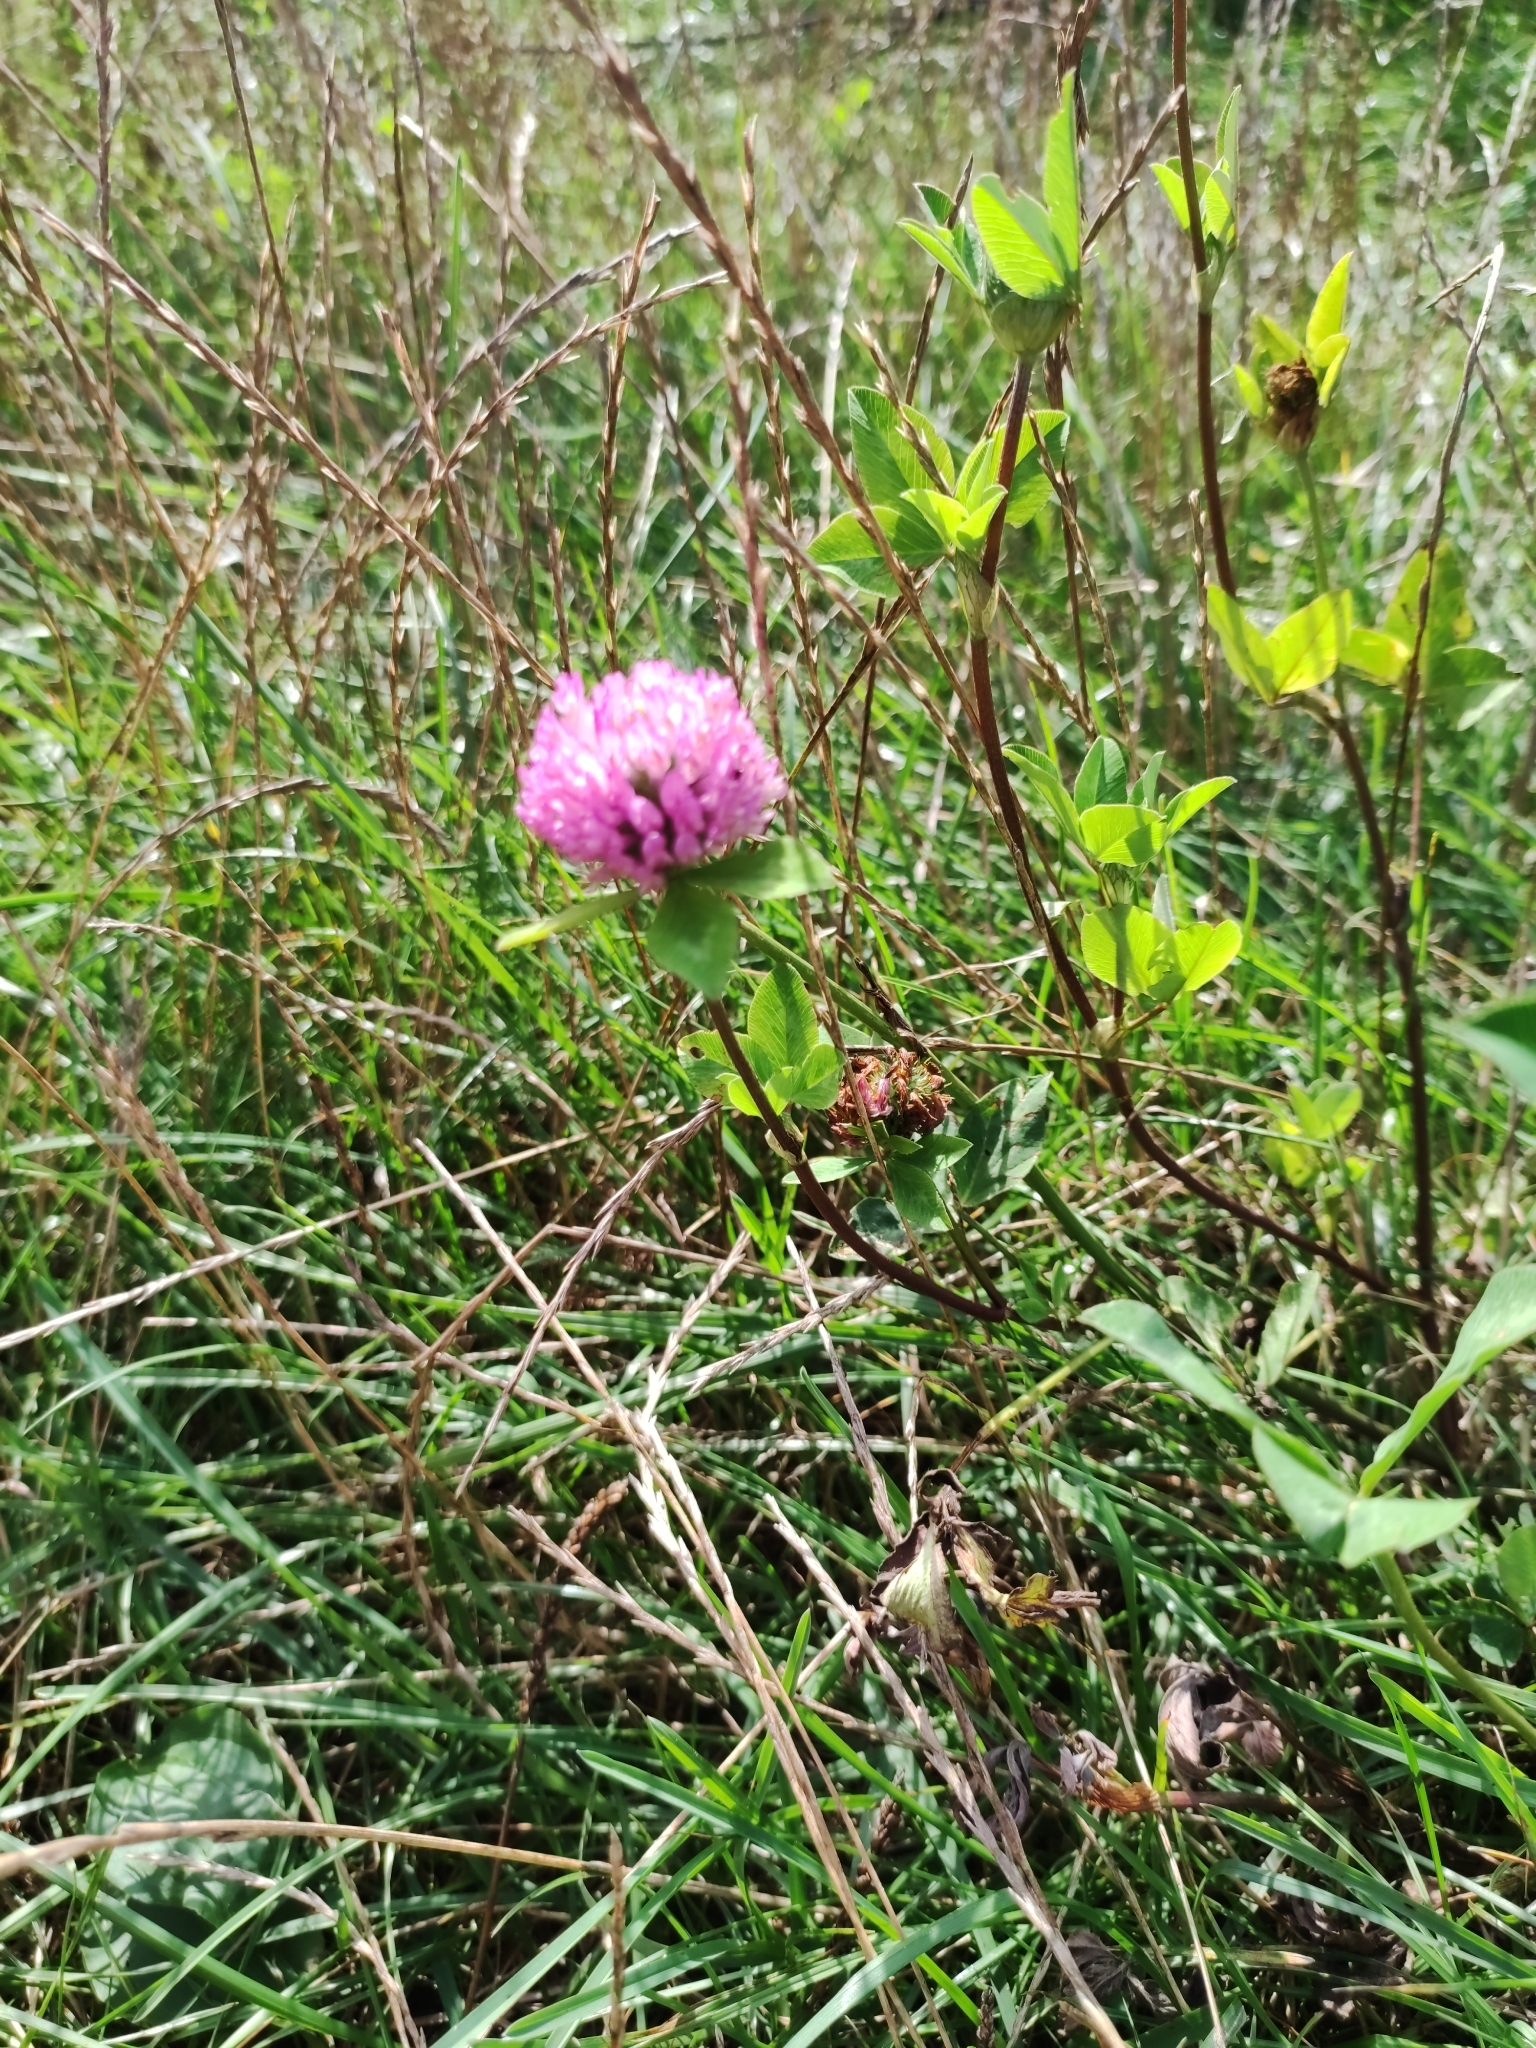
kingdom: Plantae
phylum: Tracheophyta
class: Magnoliopsida
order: Fabales
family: Fabaceae
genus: Trifolium
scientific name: Trifolium pratense
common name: Red clover
